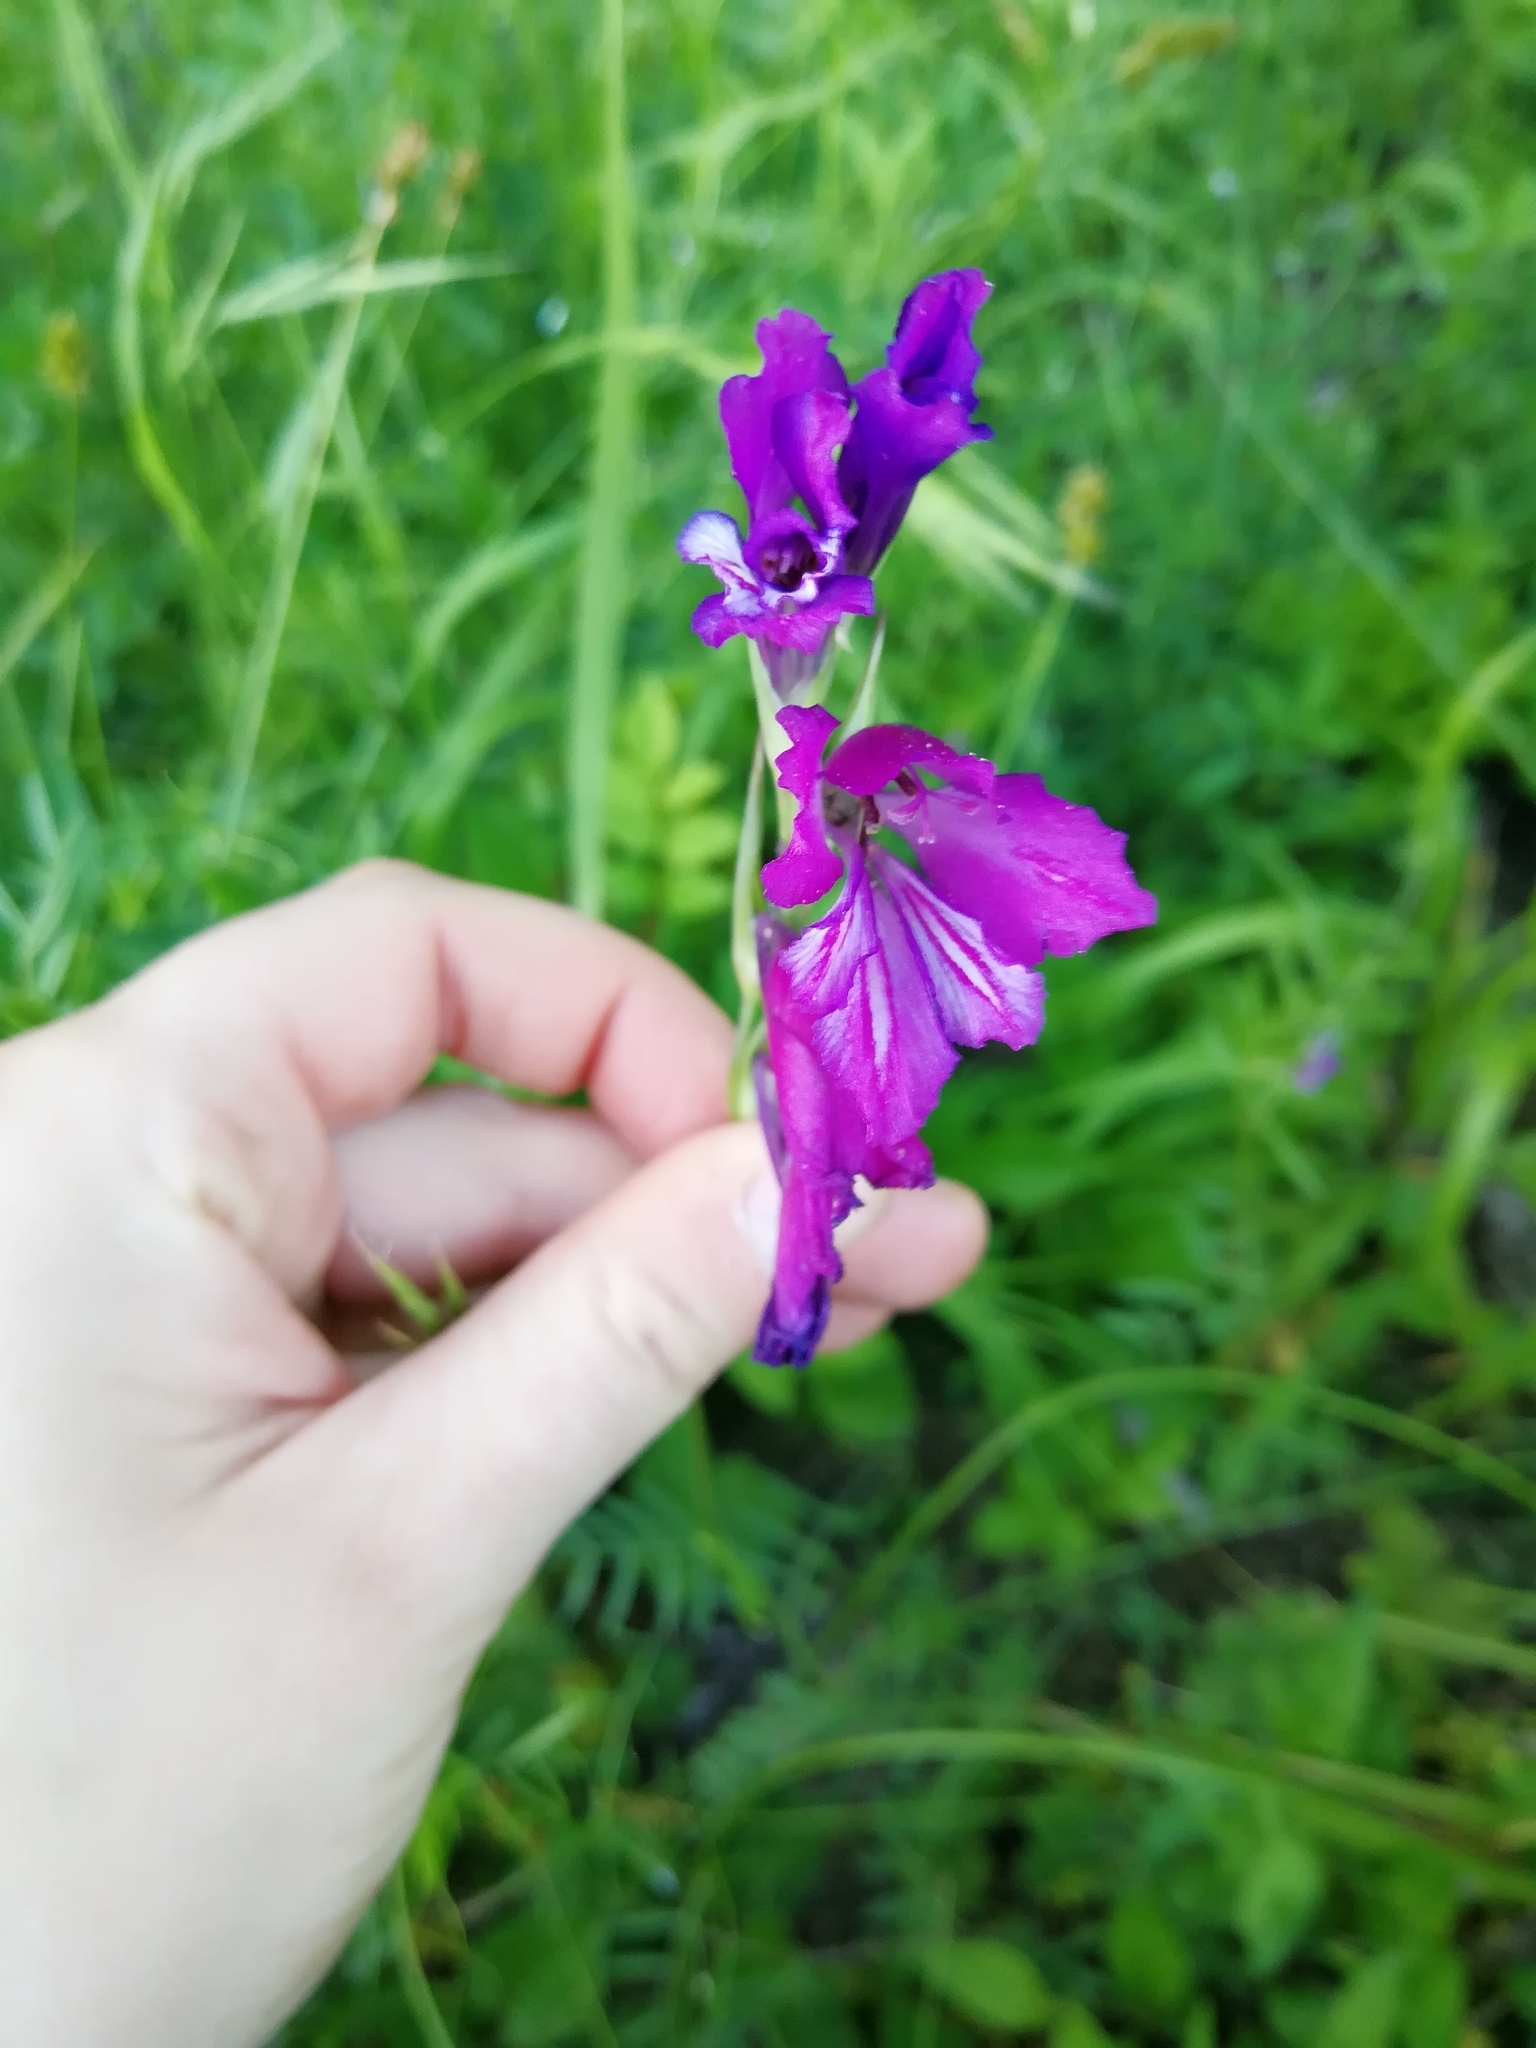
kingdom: Plantae
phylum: Tracheophyta
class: Liliopsida
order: Asparagales
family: Iridaceae
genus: Gladiolus
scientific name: Gladiolus tenuis
